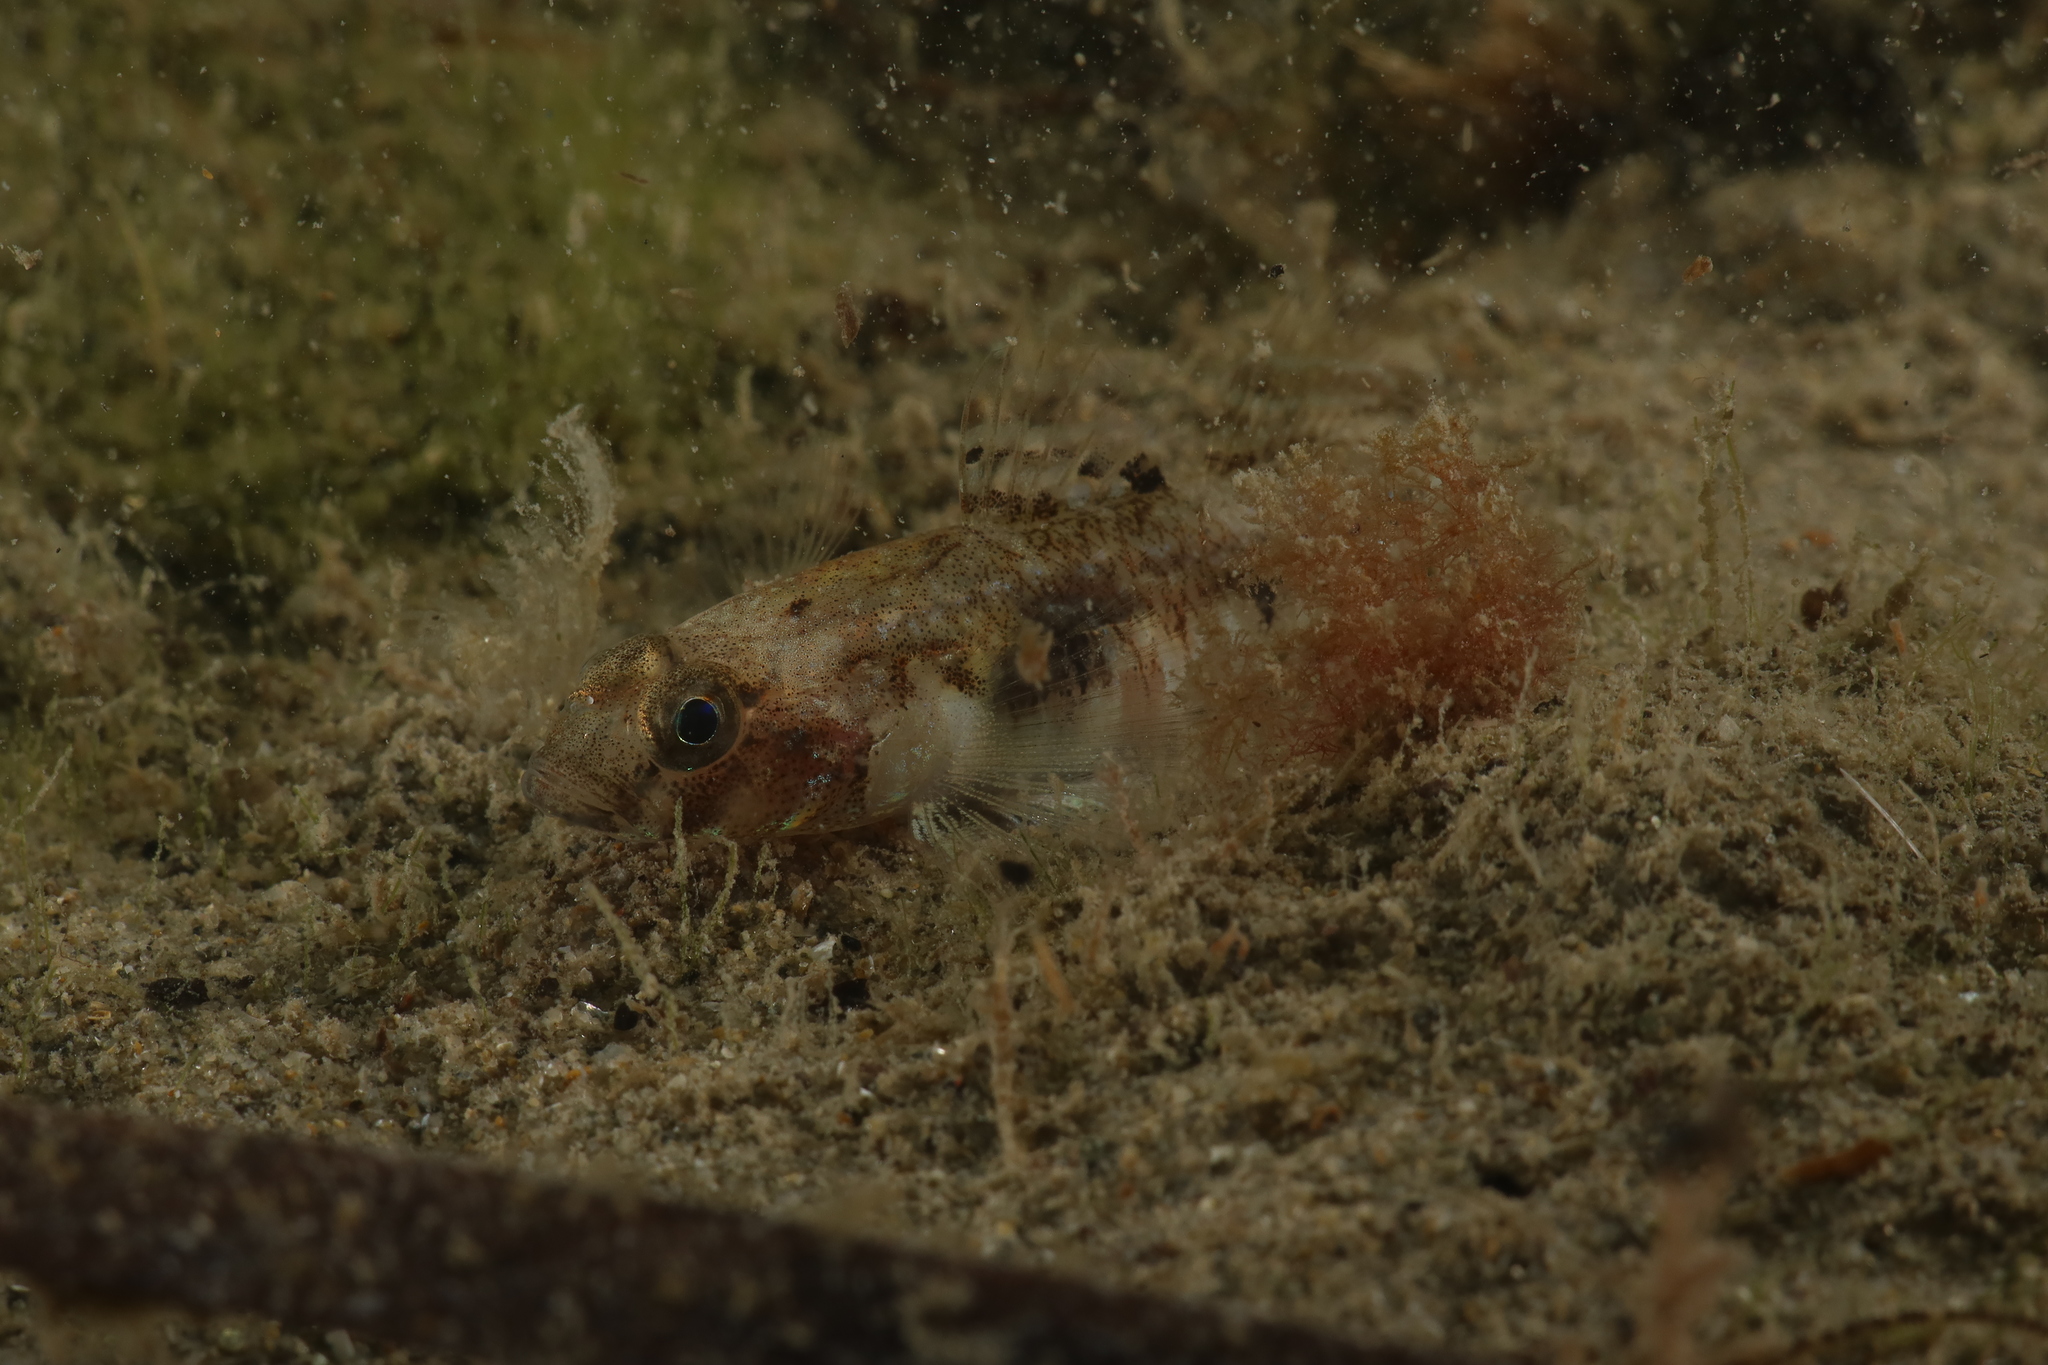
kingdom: Animalia
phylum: Chordata
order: Perciformes
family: Gobiidae
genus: Pomatoschistus
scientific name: Pomatoschistus pictus
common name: Painted goby
